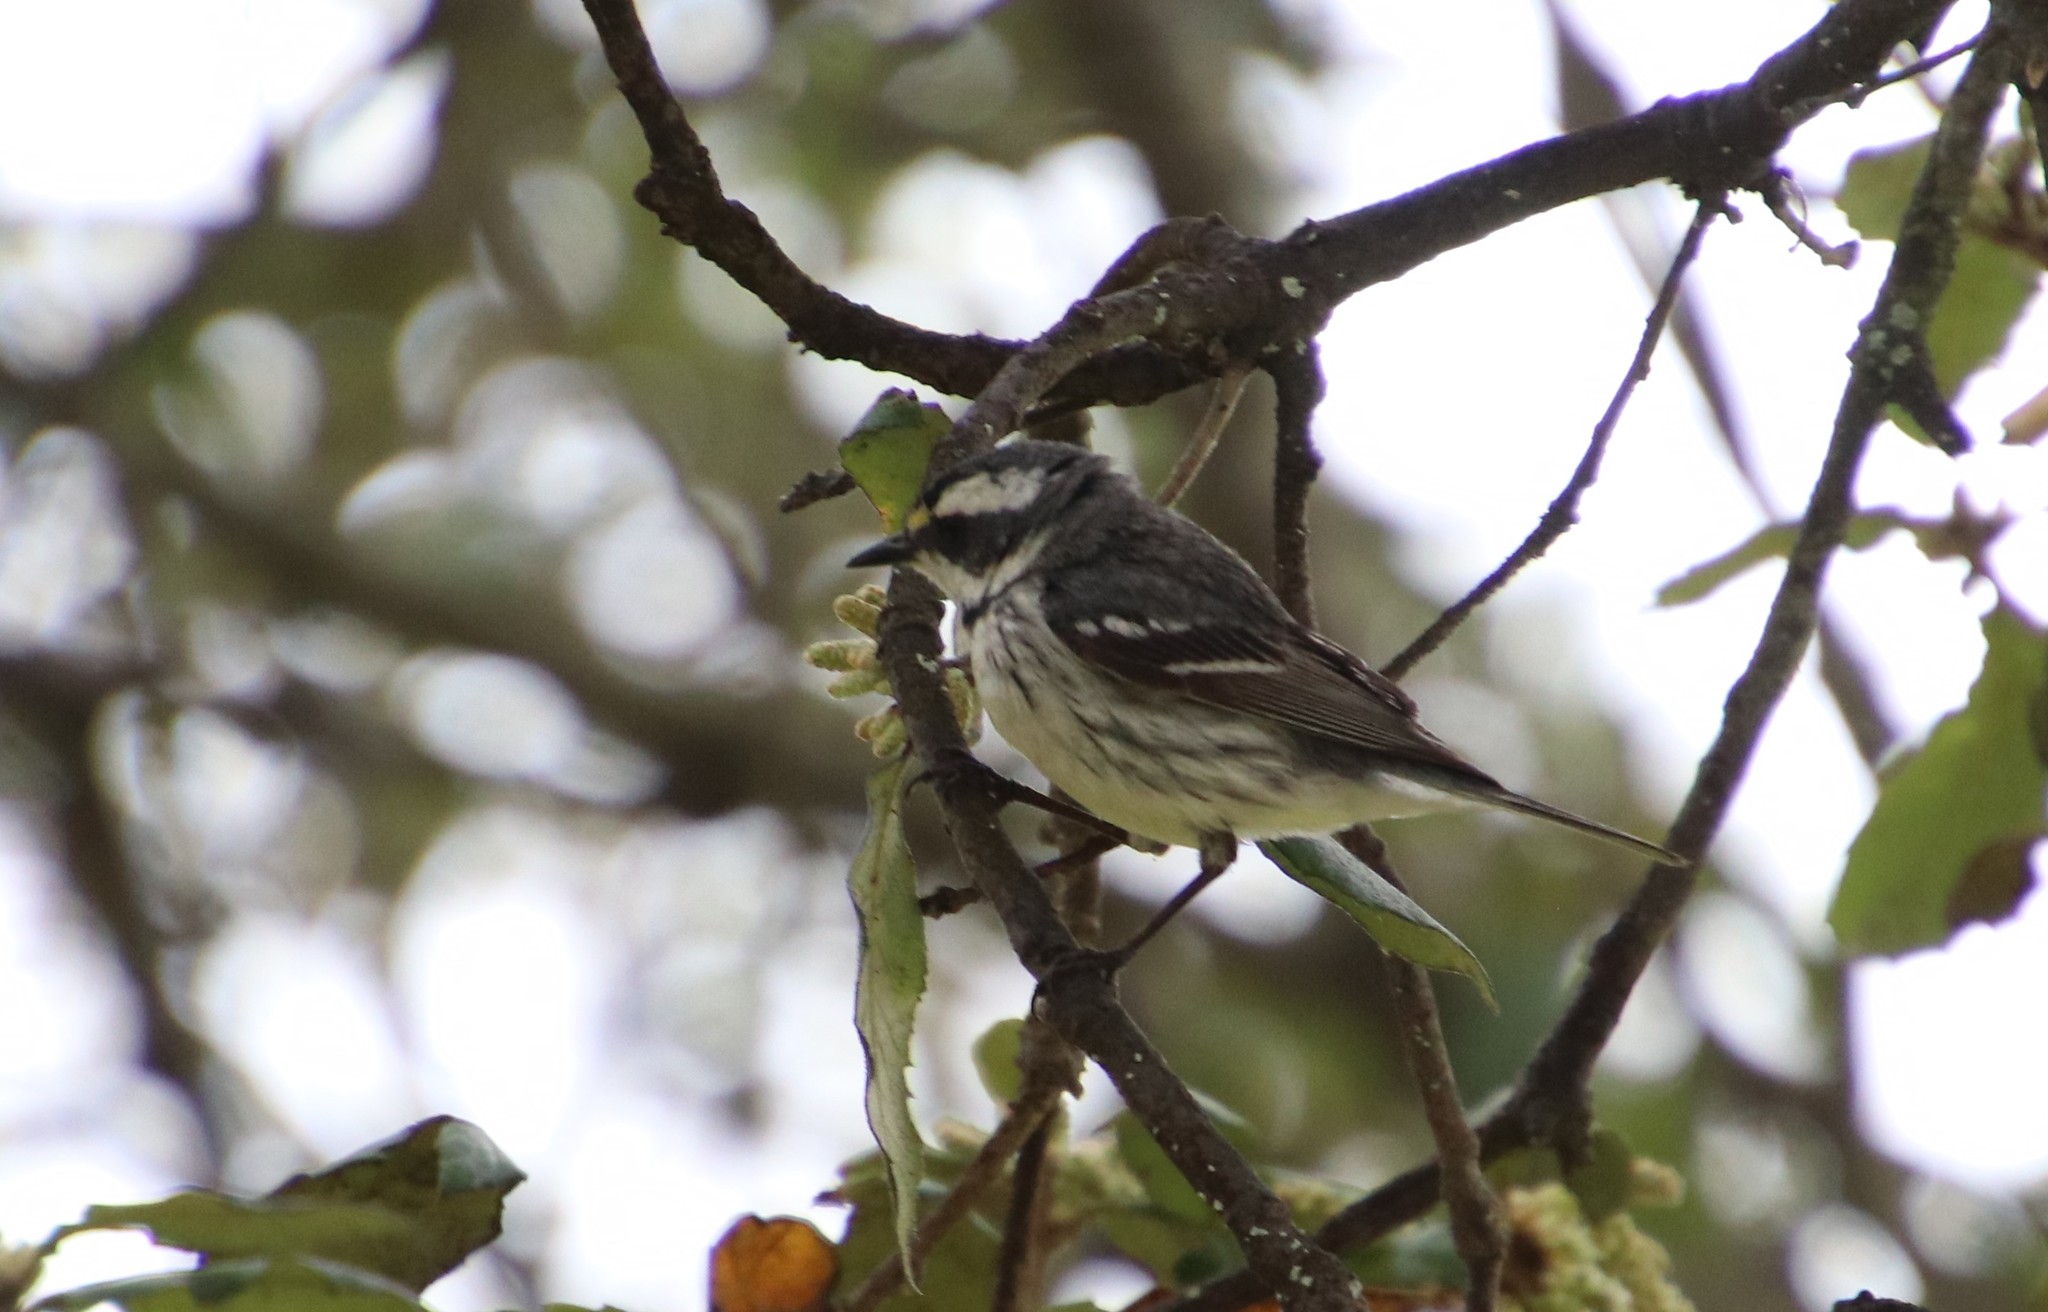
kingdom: Animalia
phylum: Chordata
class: Aves
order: Passeriformes
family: Parulidae
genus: Setophaga
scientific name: Setophaga nigrescens
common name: Black-throated gray warbler
